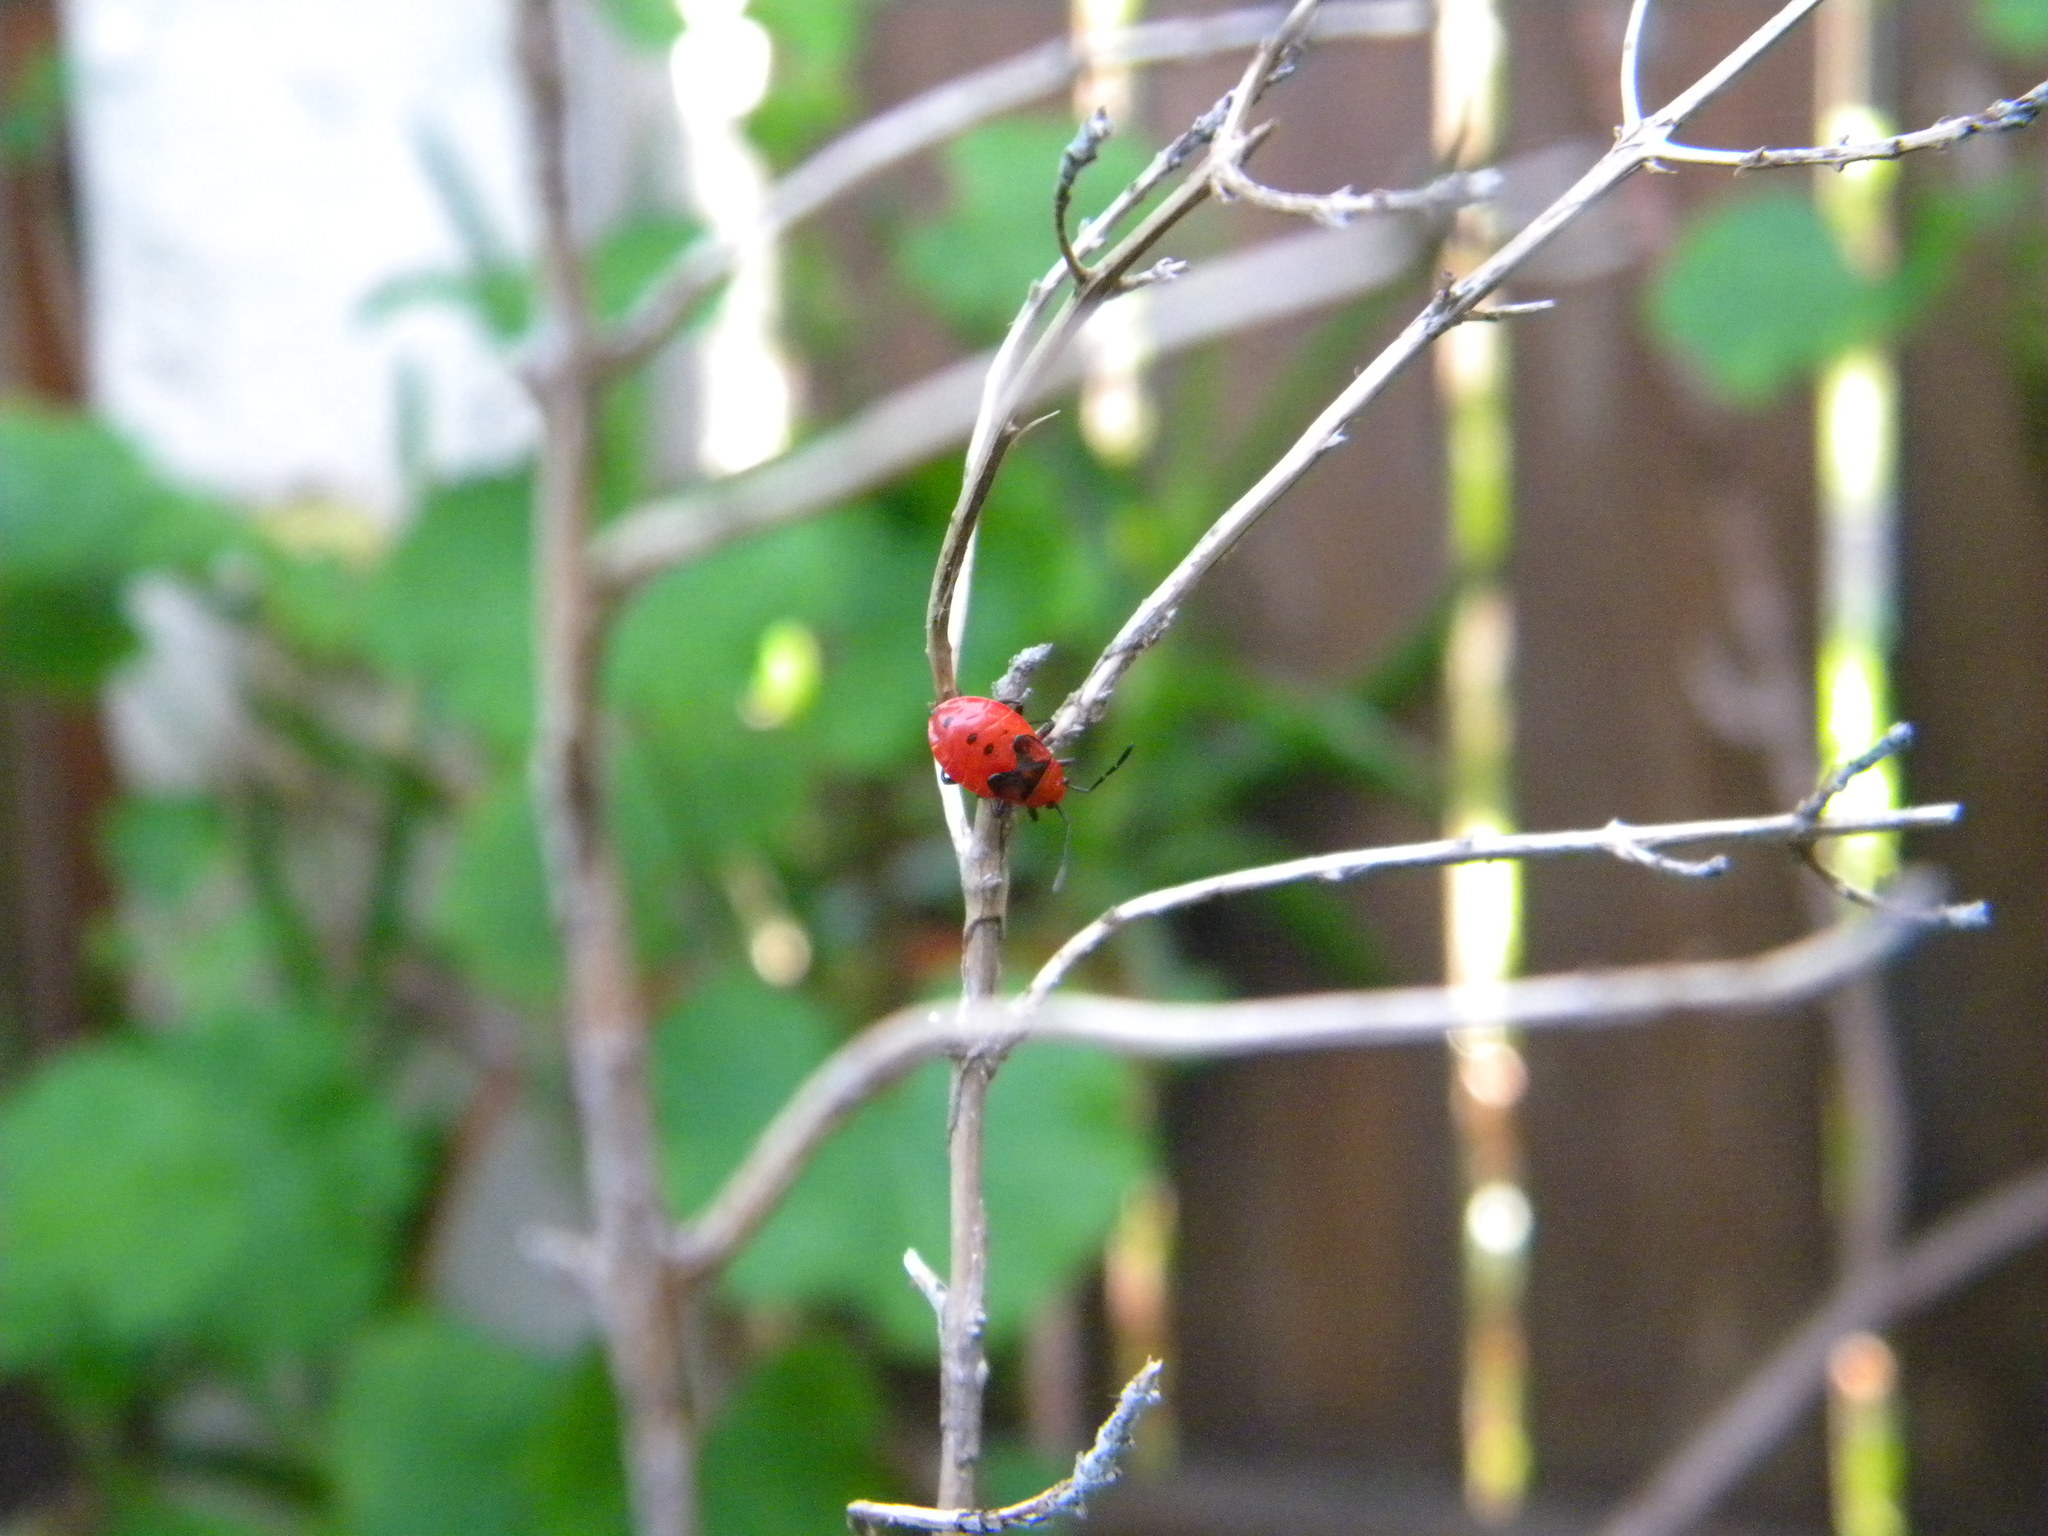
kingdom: Animalia
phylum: Arthropoda
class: Insecta
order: Hemiptera
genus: Cenaeus
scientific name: Cenaeus
